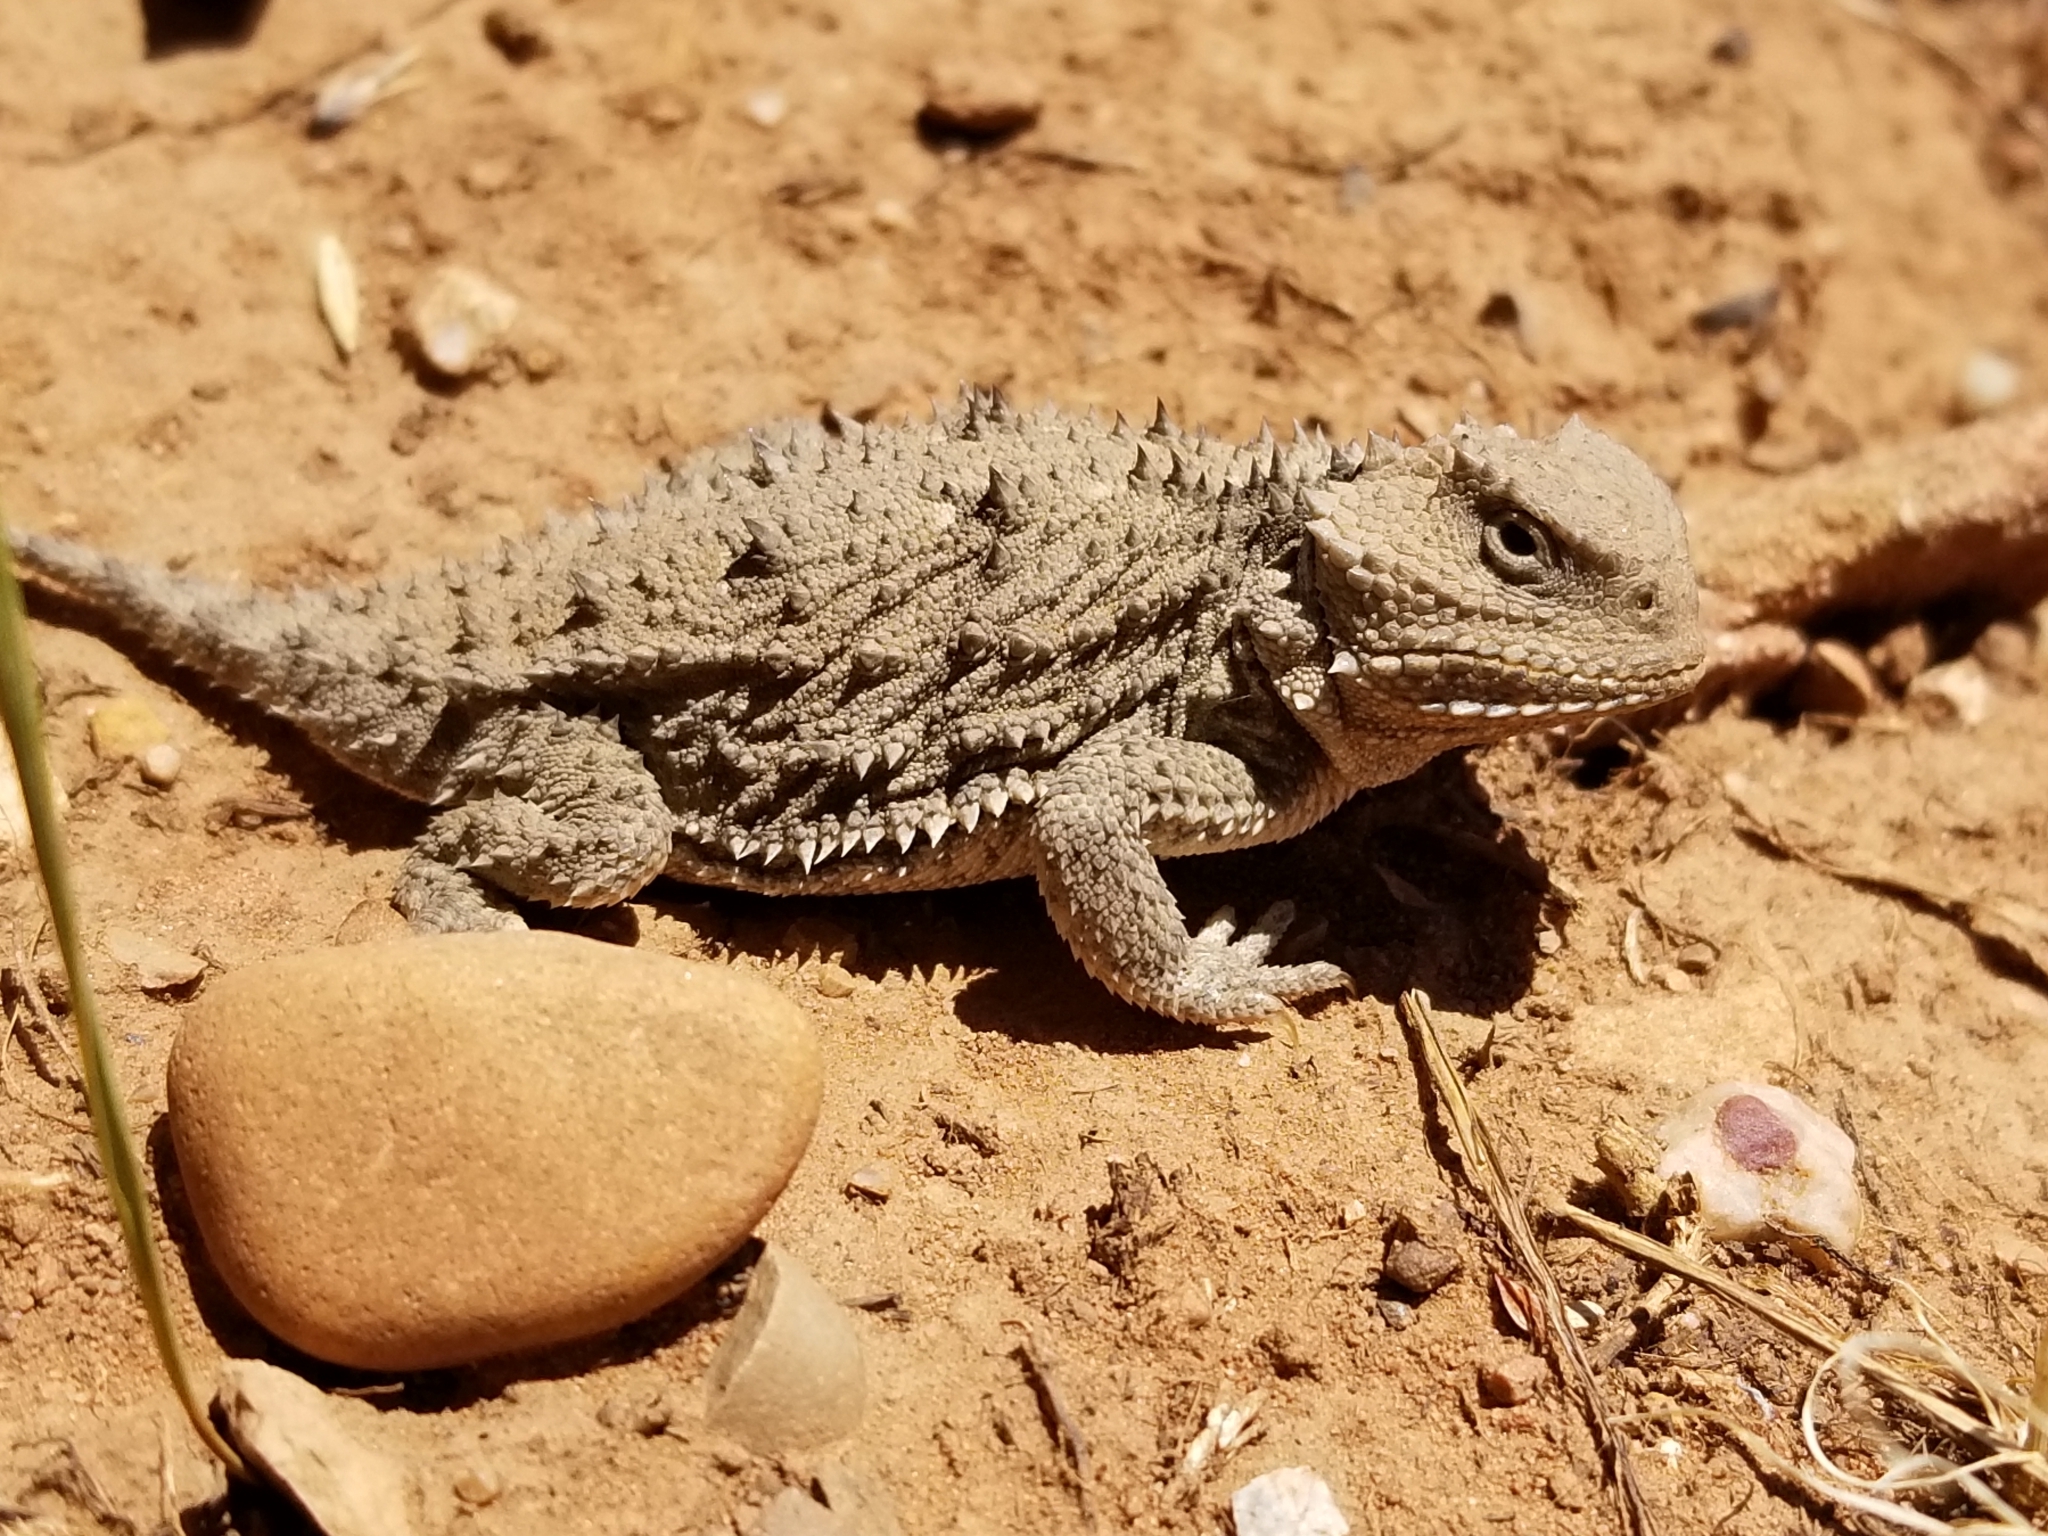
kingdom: Animalia
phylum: Chordata
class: Squamata
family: Phrynosomatidae
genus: Phrynosoma
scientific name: Phrynosoma hernandesi
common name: Greater short-horned lizard
